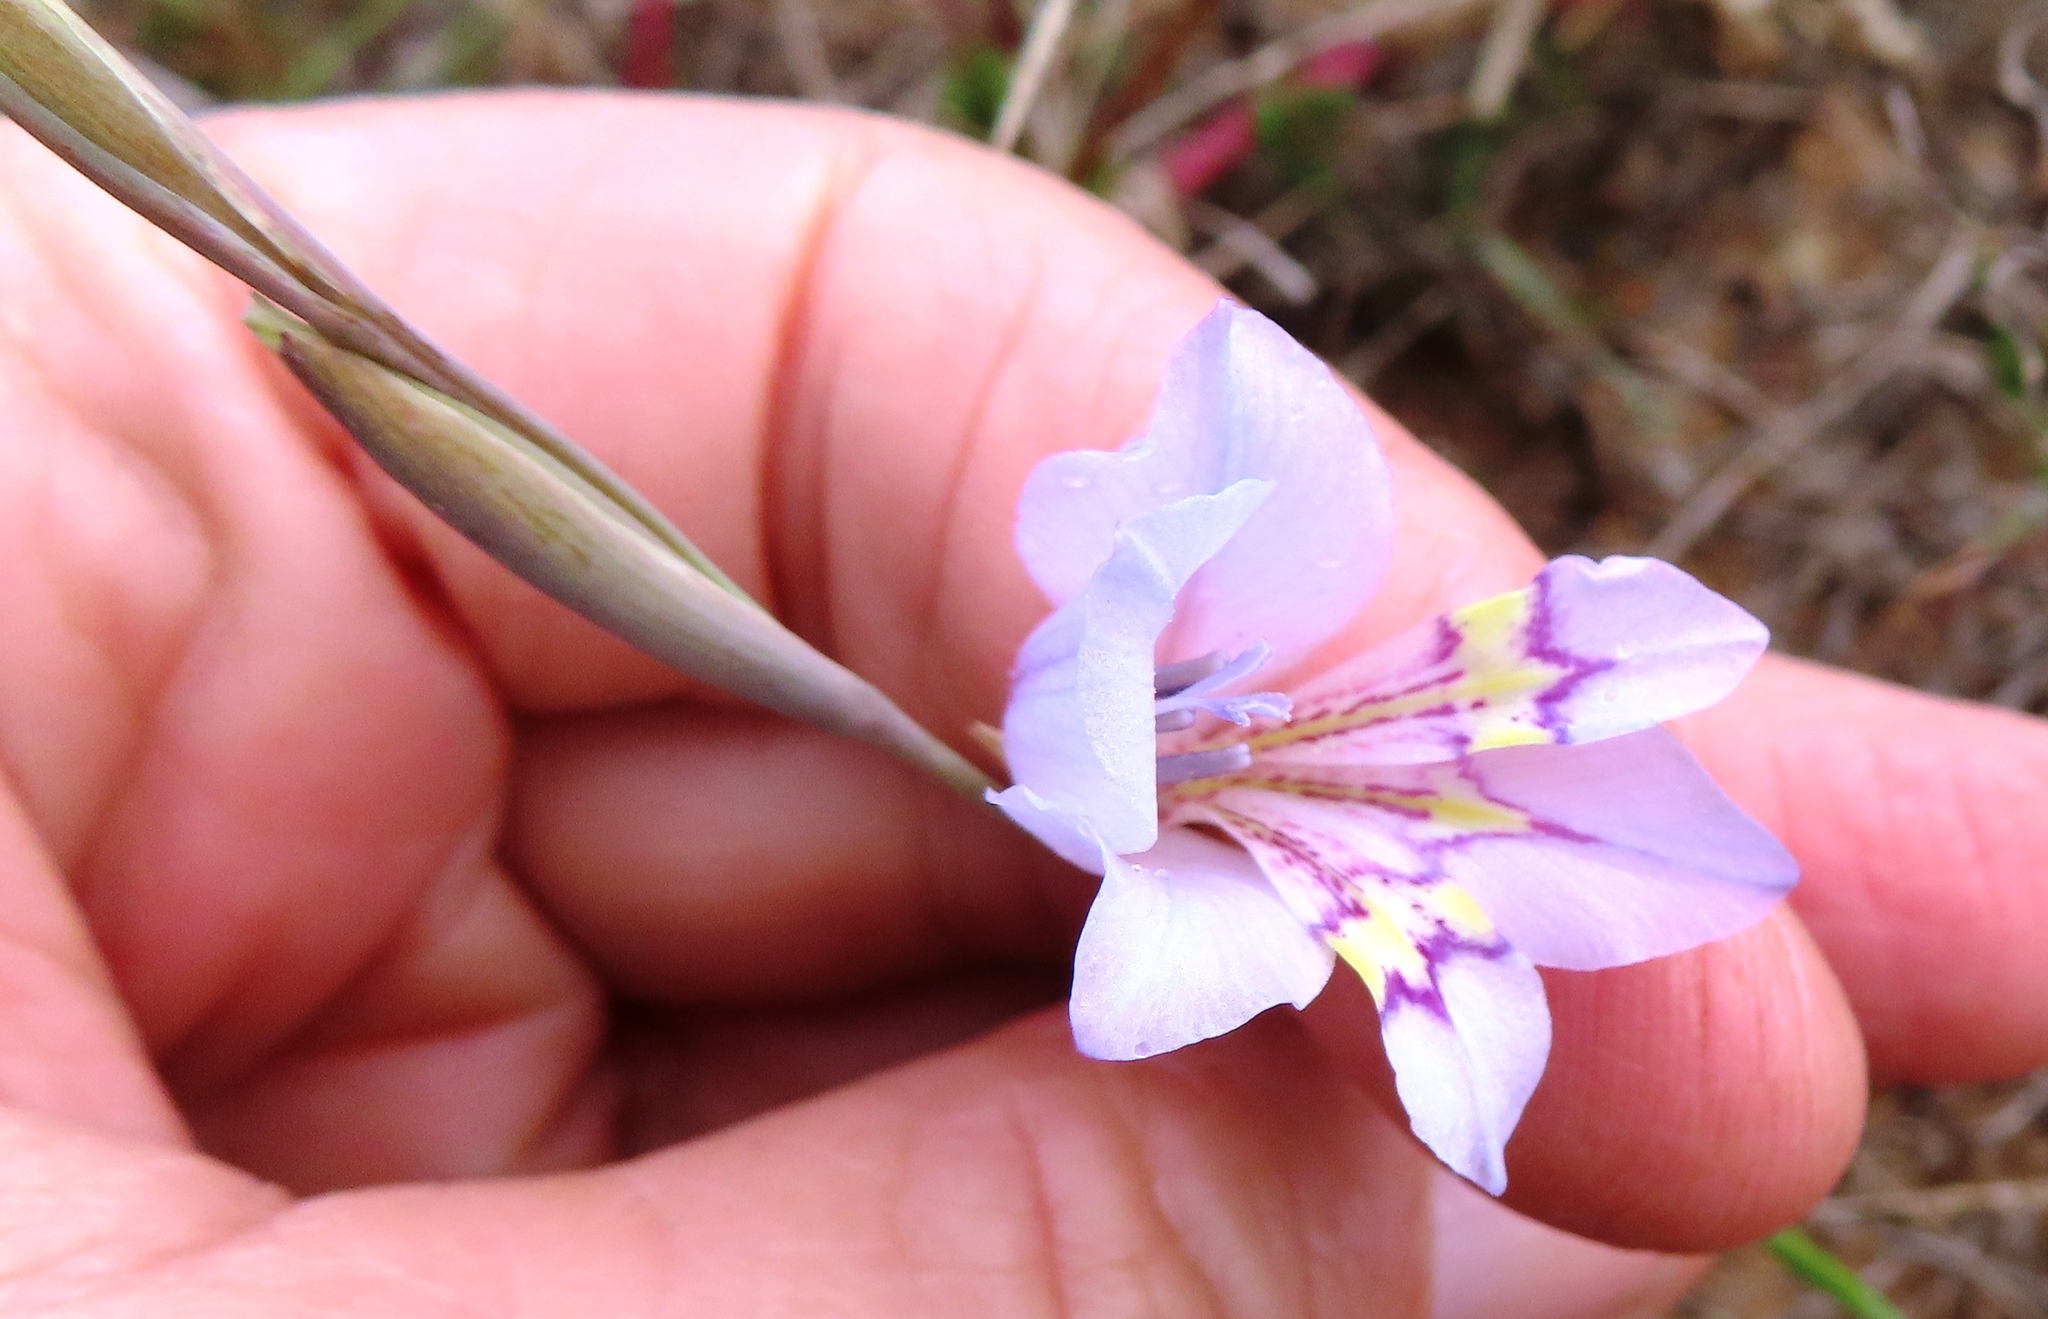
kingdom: Plantae
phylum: Tracheophyta
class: Liliopsida
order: Asparagales
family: Iridaceae
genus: Gladiolus
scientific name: Gladiolus brevifolius
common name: March pypie
